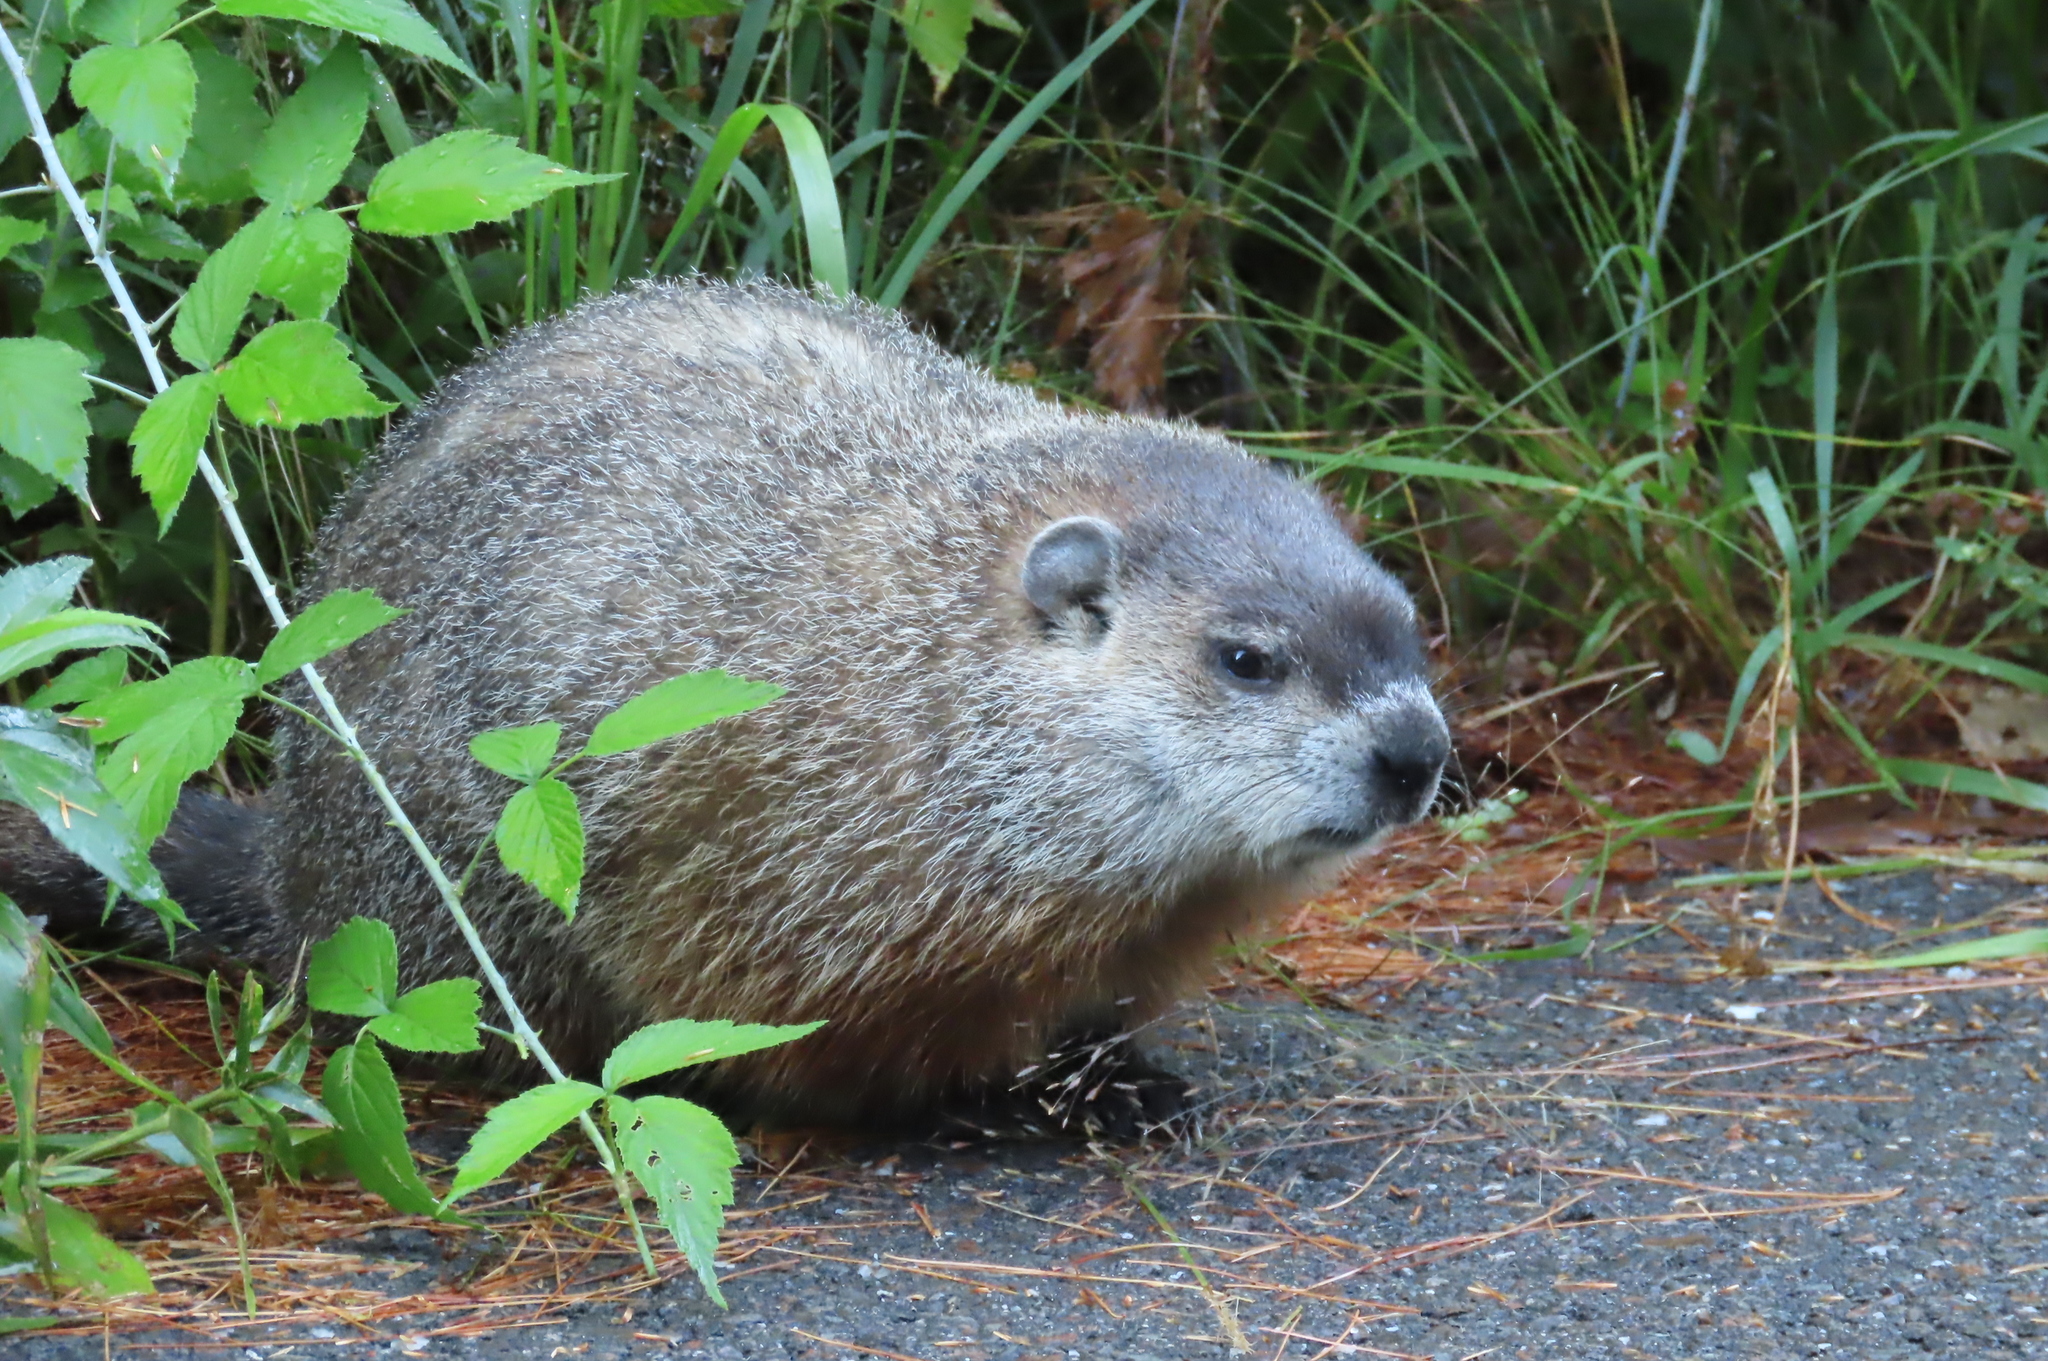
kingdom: Animalia
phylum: Chordata
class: Mammalia
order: Rodentia
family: Sciuridae
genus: Marmota
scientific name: Marmota monax
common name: Groundhog
